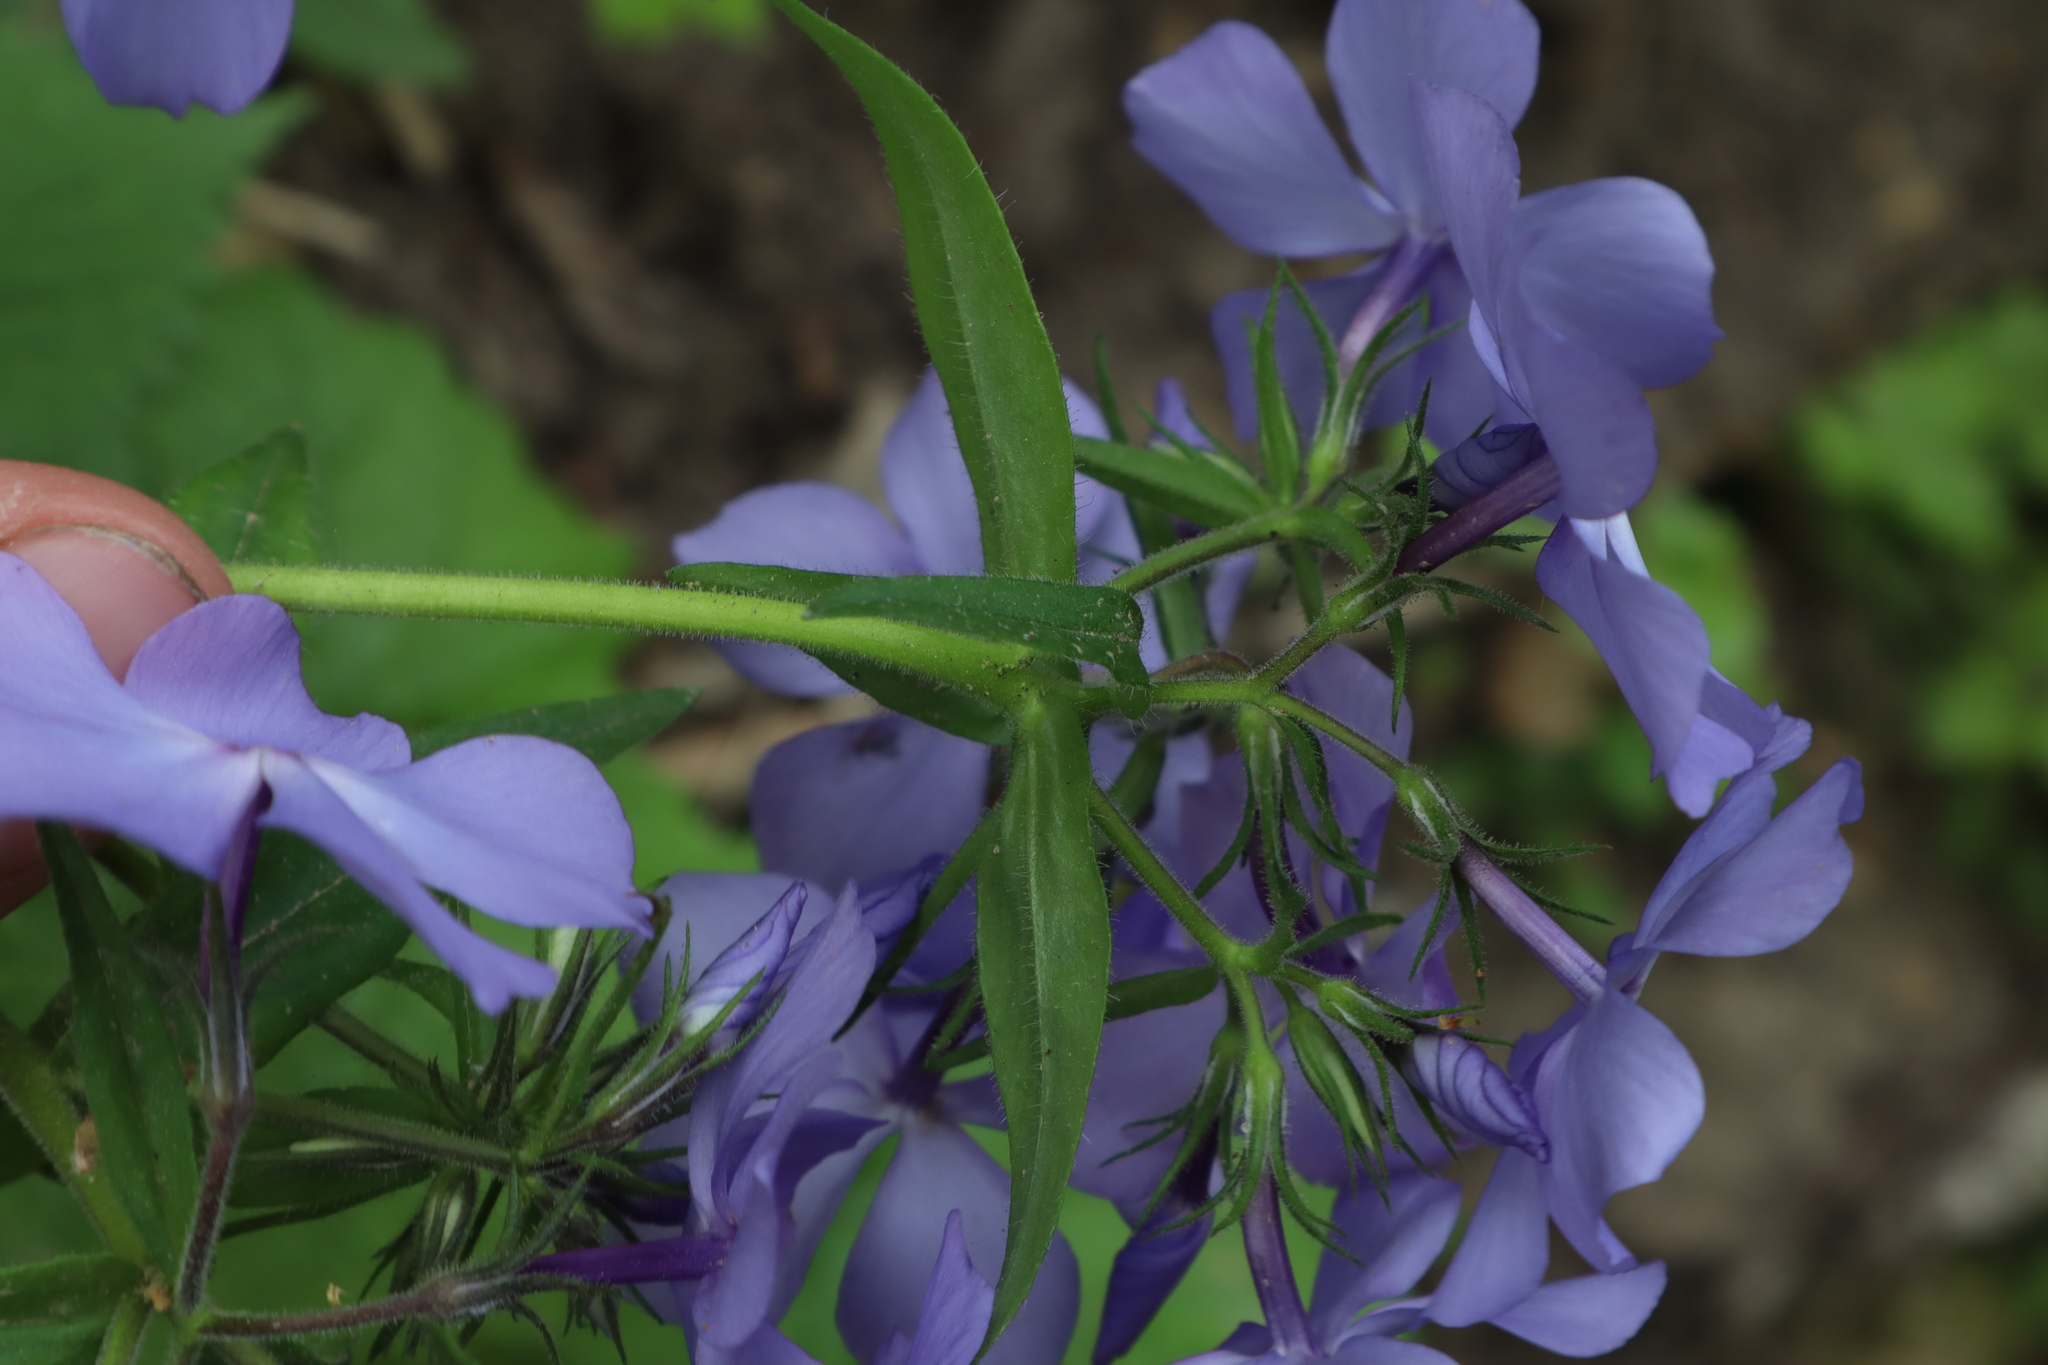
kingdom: Plantae
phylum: Tracheophyta
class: Magnoliopsida
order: Ericales
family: Polemoniaceae
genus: Phlox
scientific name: Phlox divaricata
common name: Blue phlox
